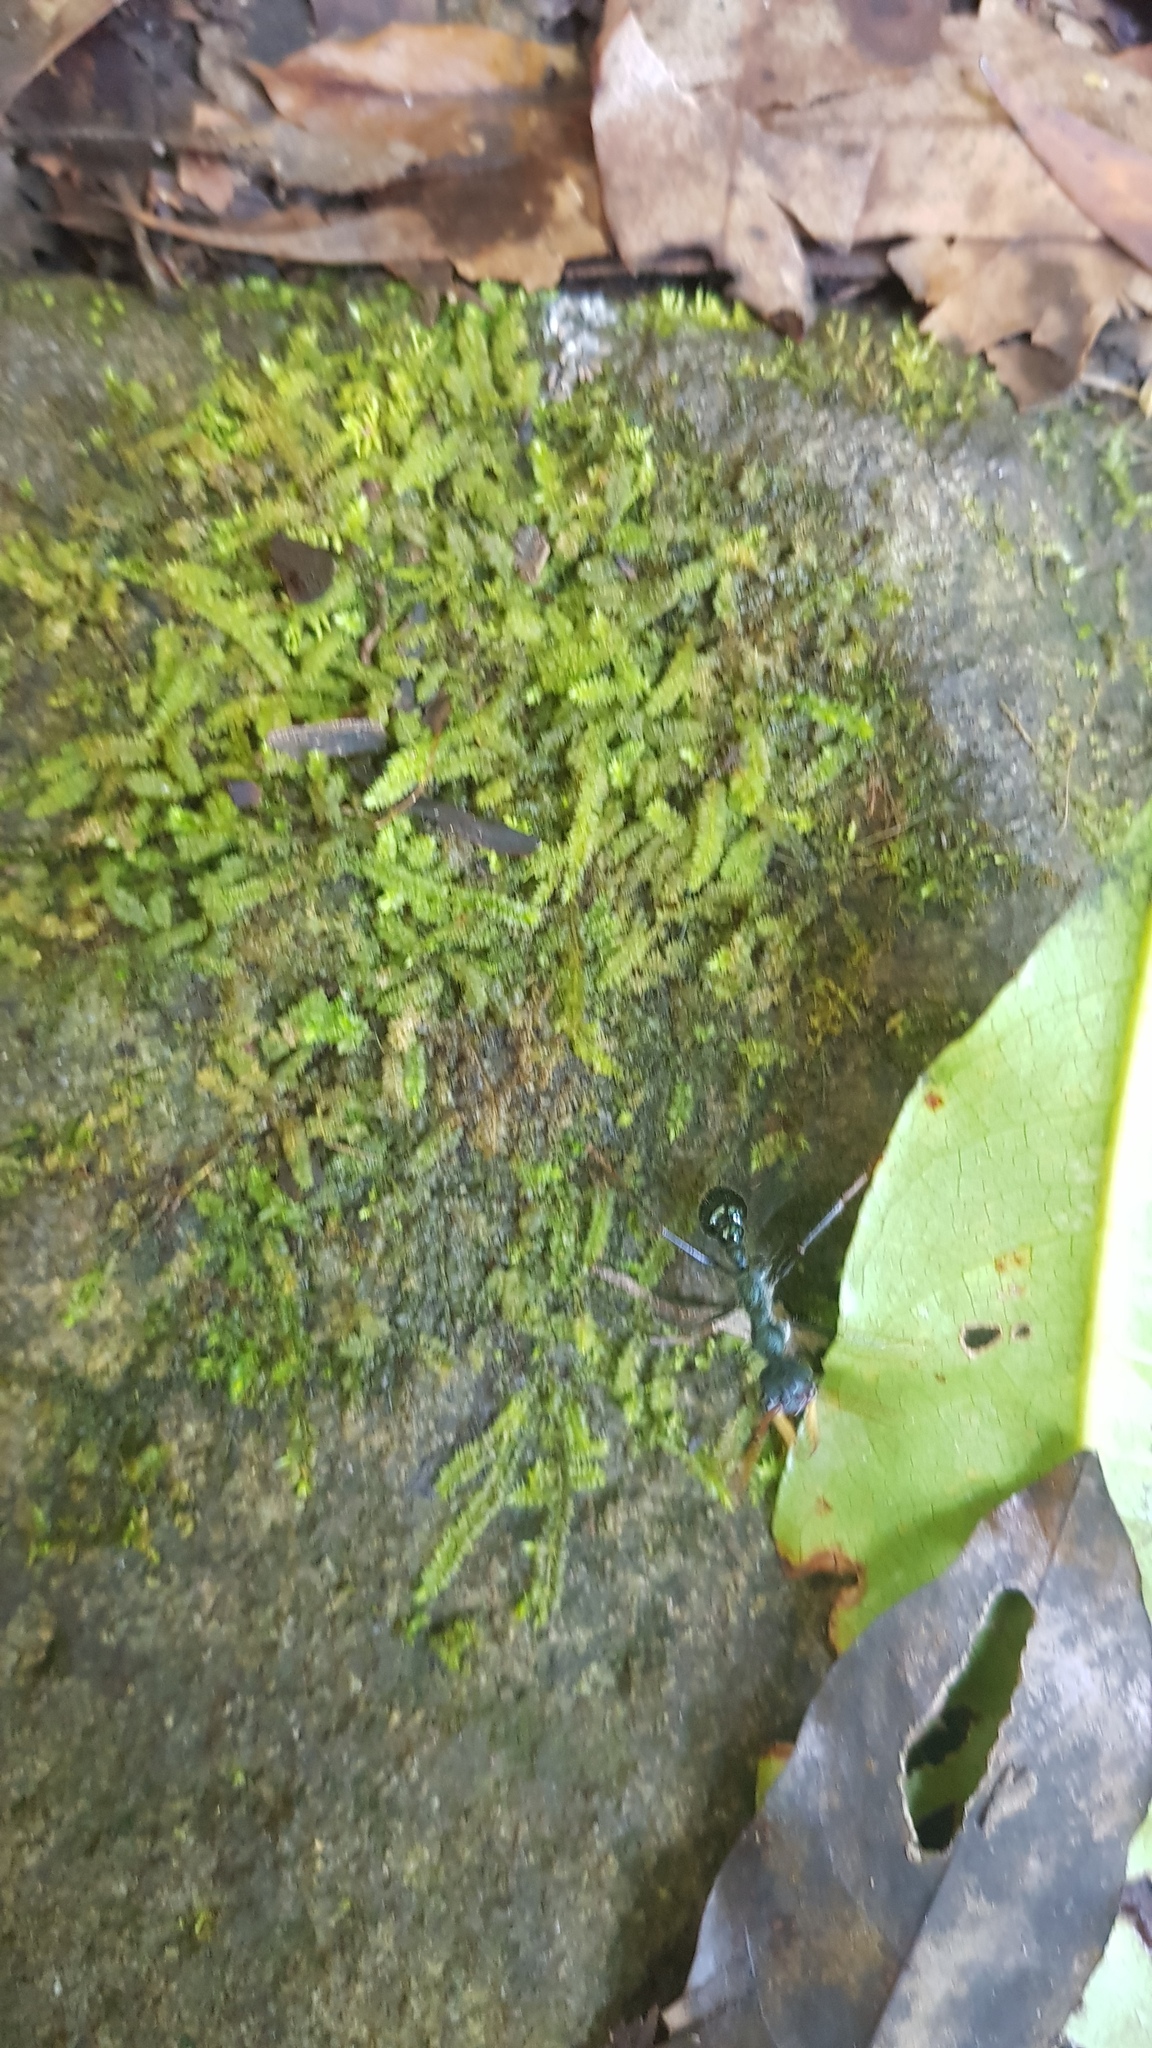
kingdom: Animalia
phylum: Arthropoda
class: Insecta
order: Hymenoptera
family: Formicidae
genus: Myrmecia
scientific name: Myrmecia tarsata
